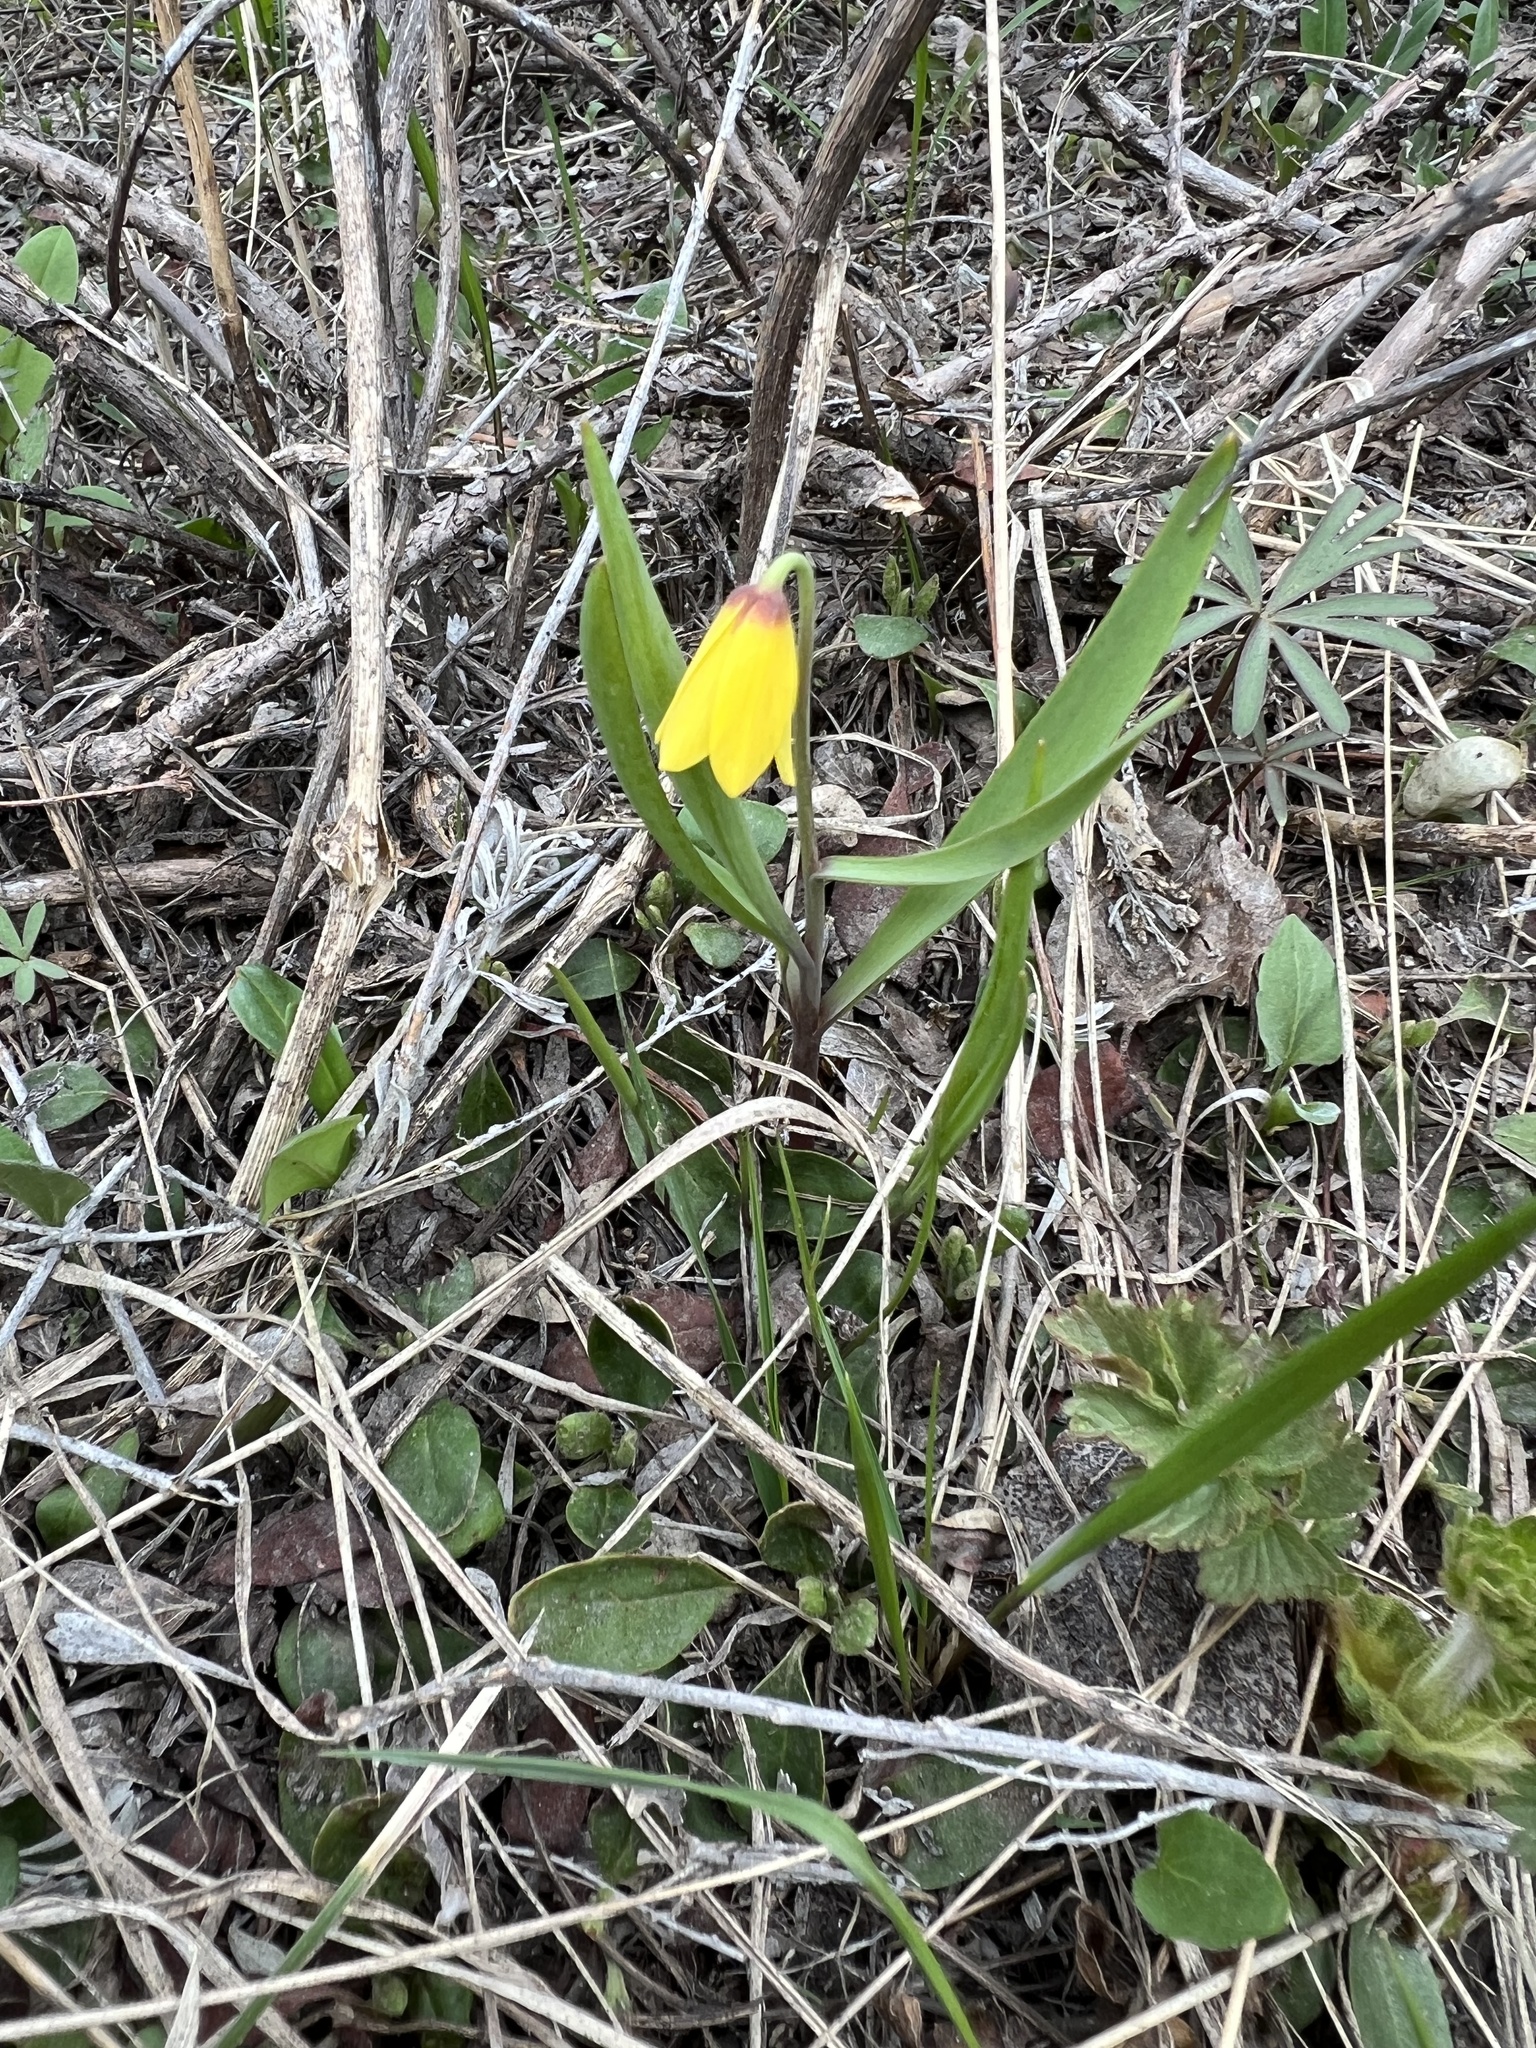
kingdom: Plantae
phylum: Tracheophyta
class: Liliopsida
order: Liliales
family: Liliaceae
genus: Fritillaria
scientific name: Fritillaria pudica
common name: Yellow fritillary
